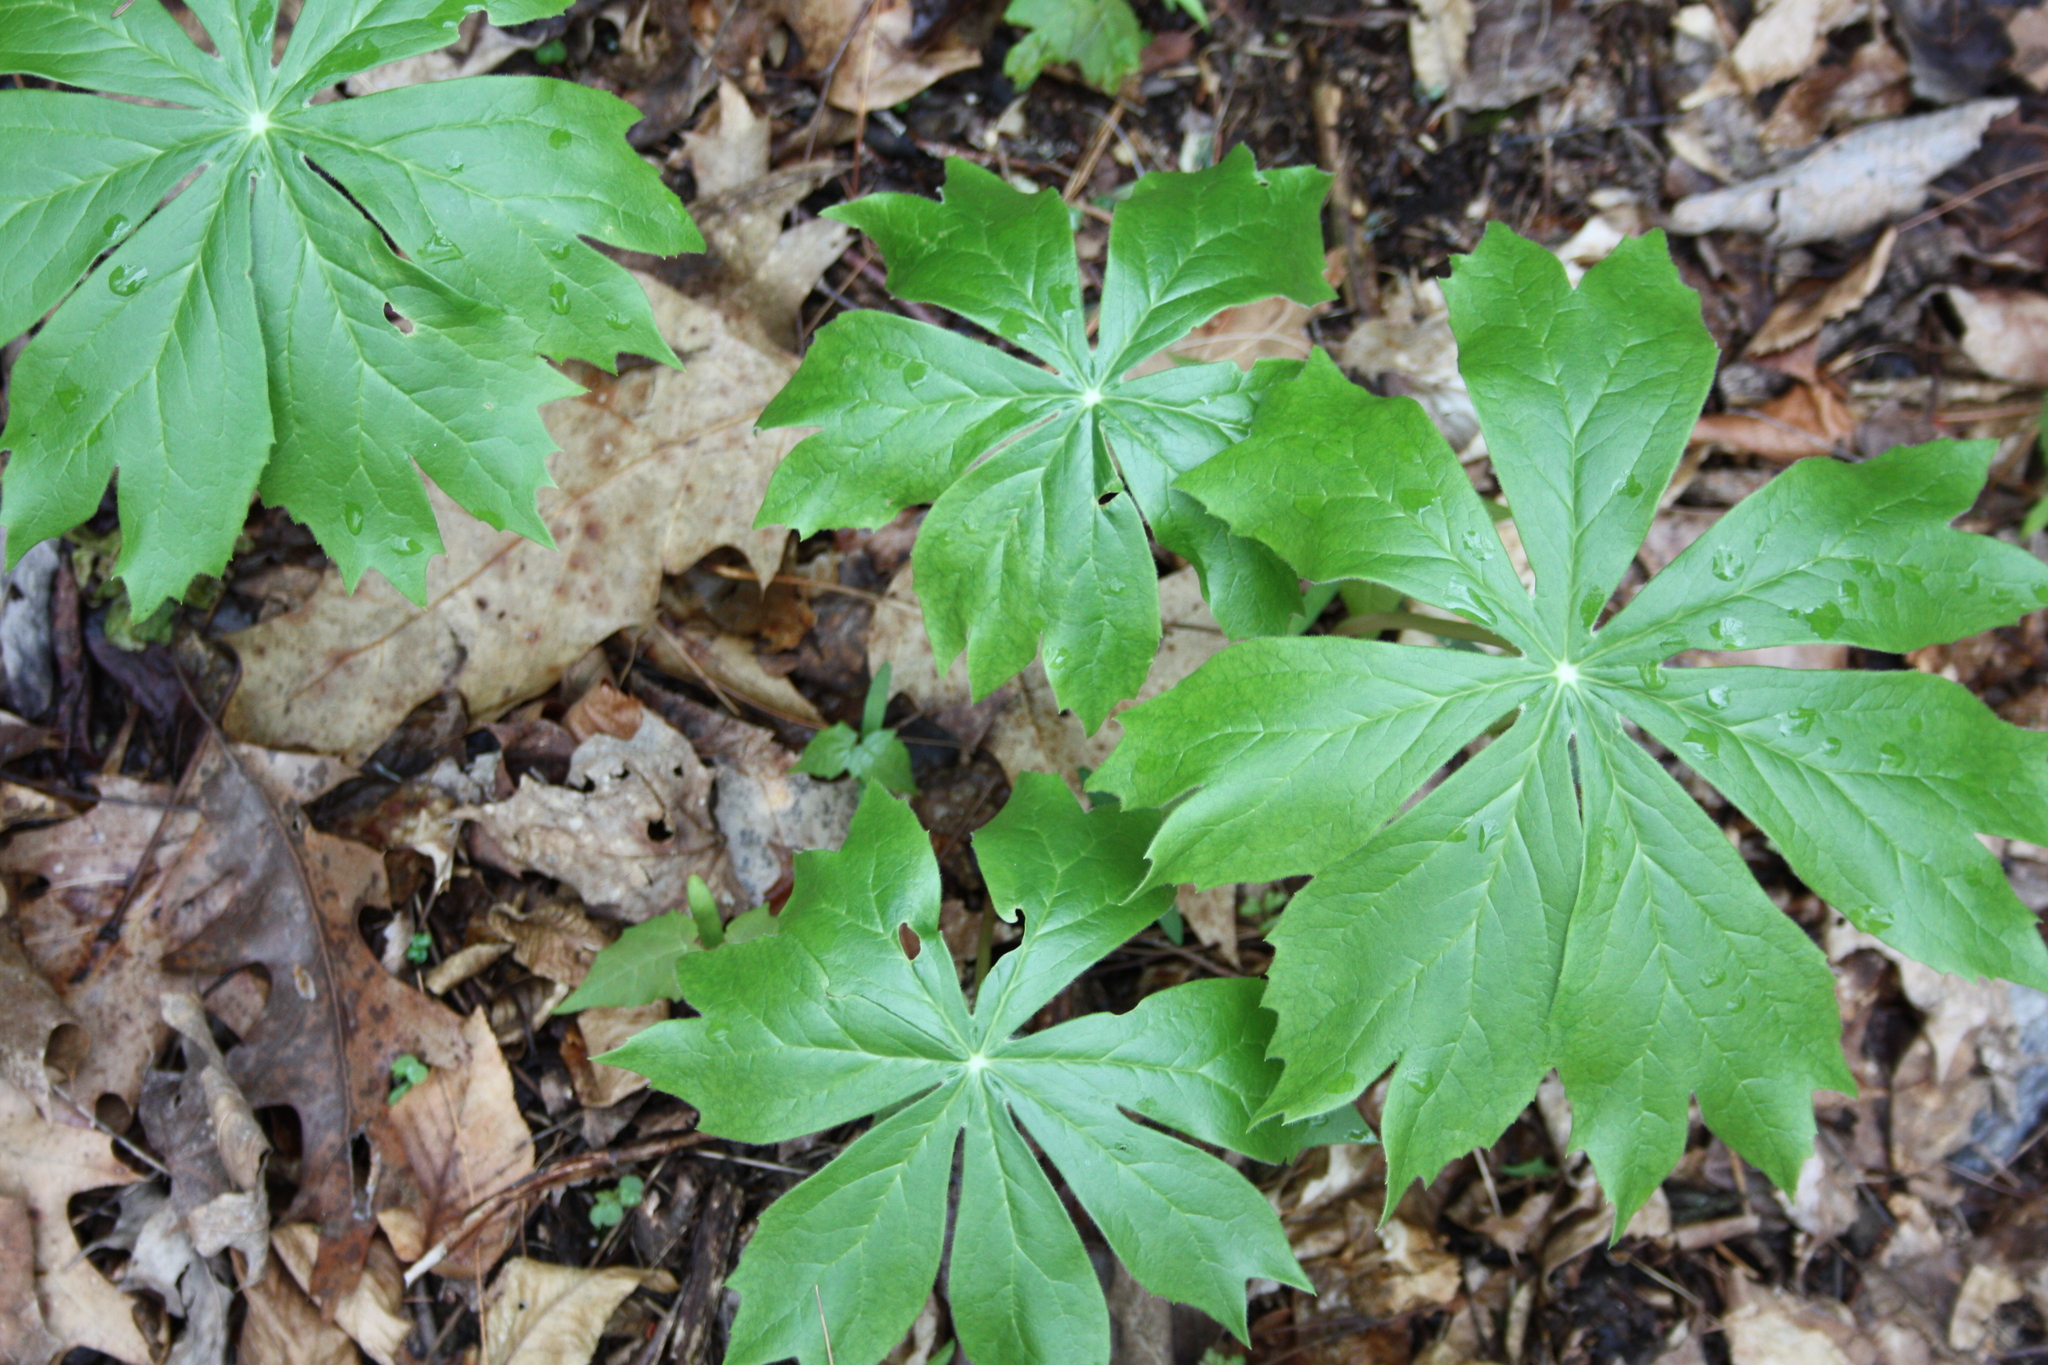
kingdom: Plantae
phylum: Tracheophyta
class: Magnoliopsida
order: Ranunculales
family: Berberidaceae
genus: Podophyllum
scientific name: Podophyllum peltatum
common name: Wild mandrake
